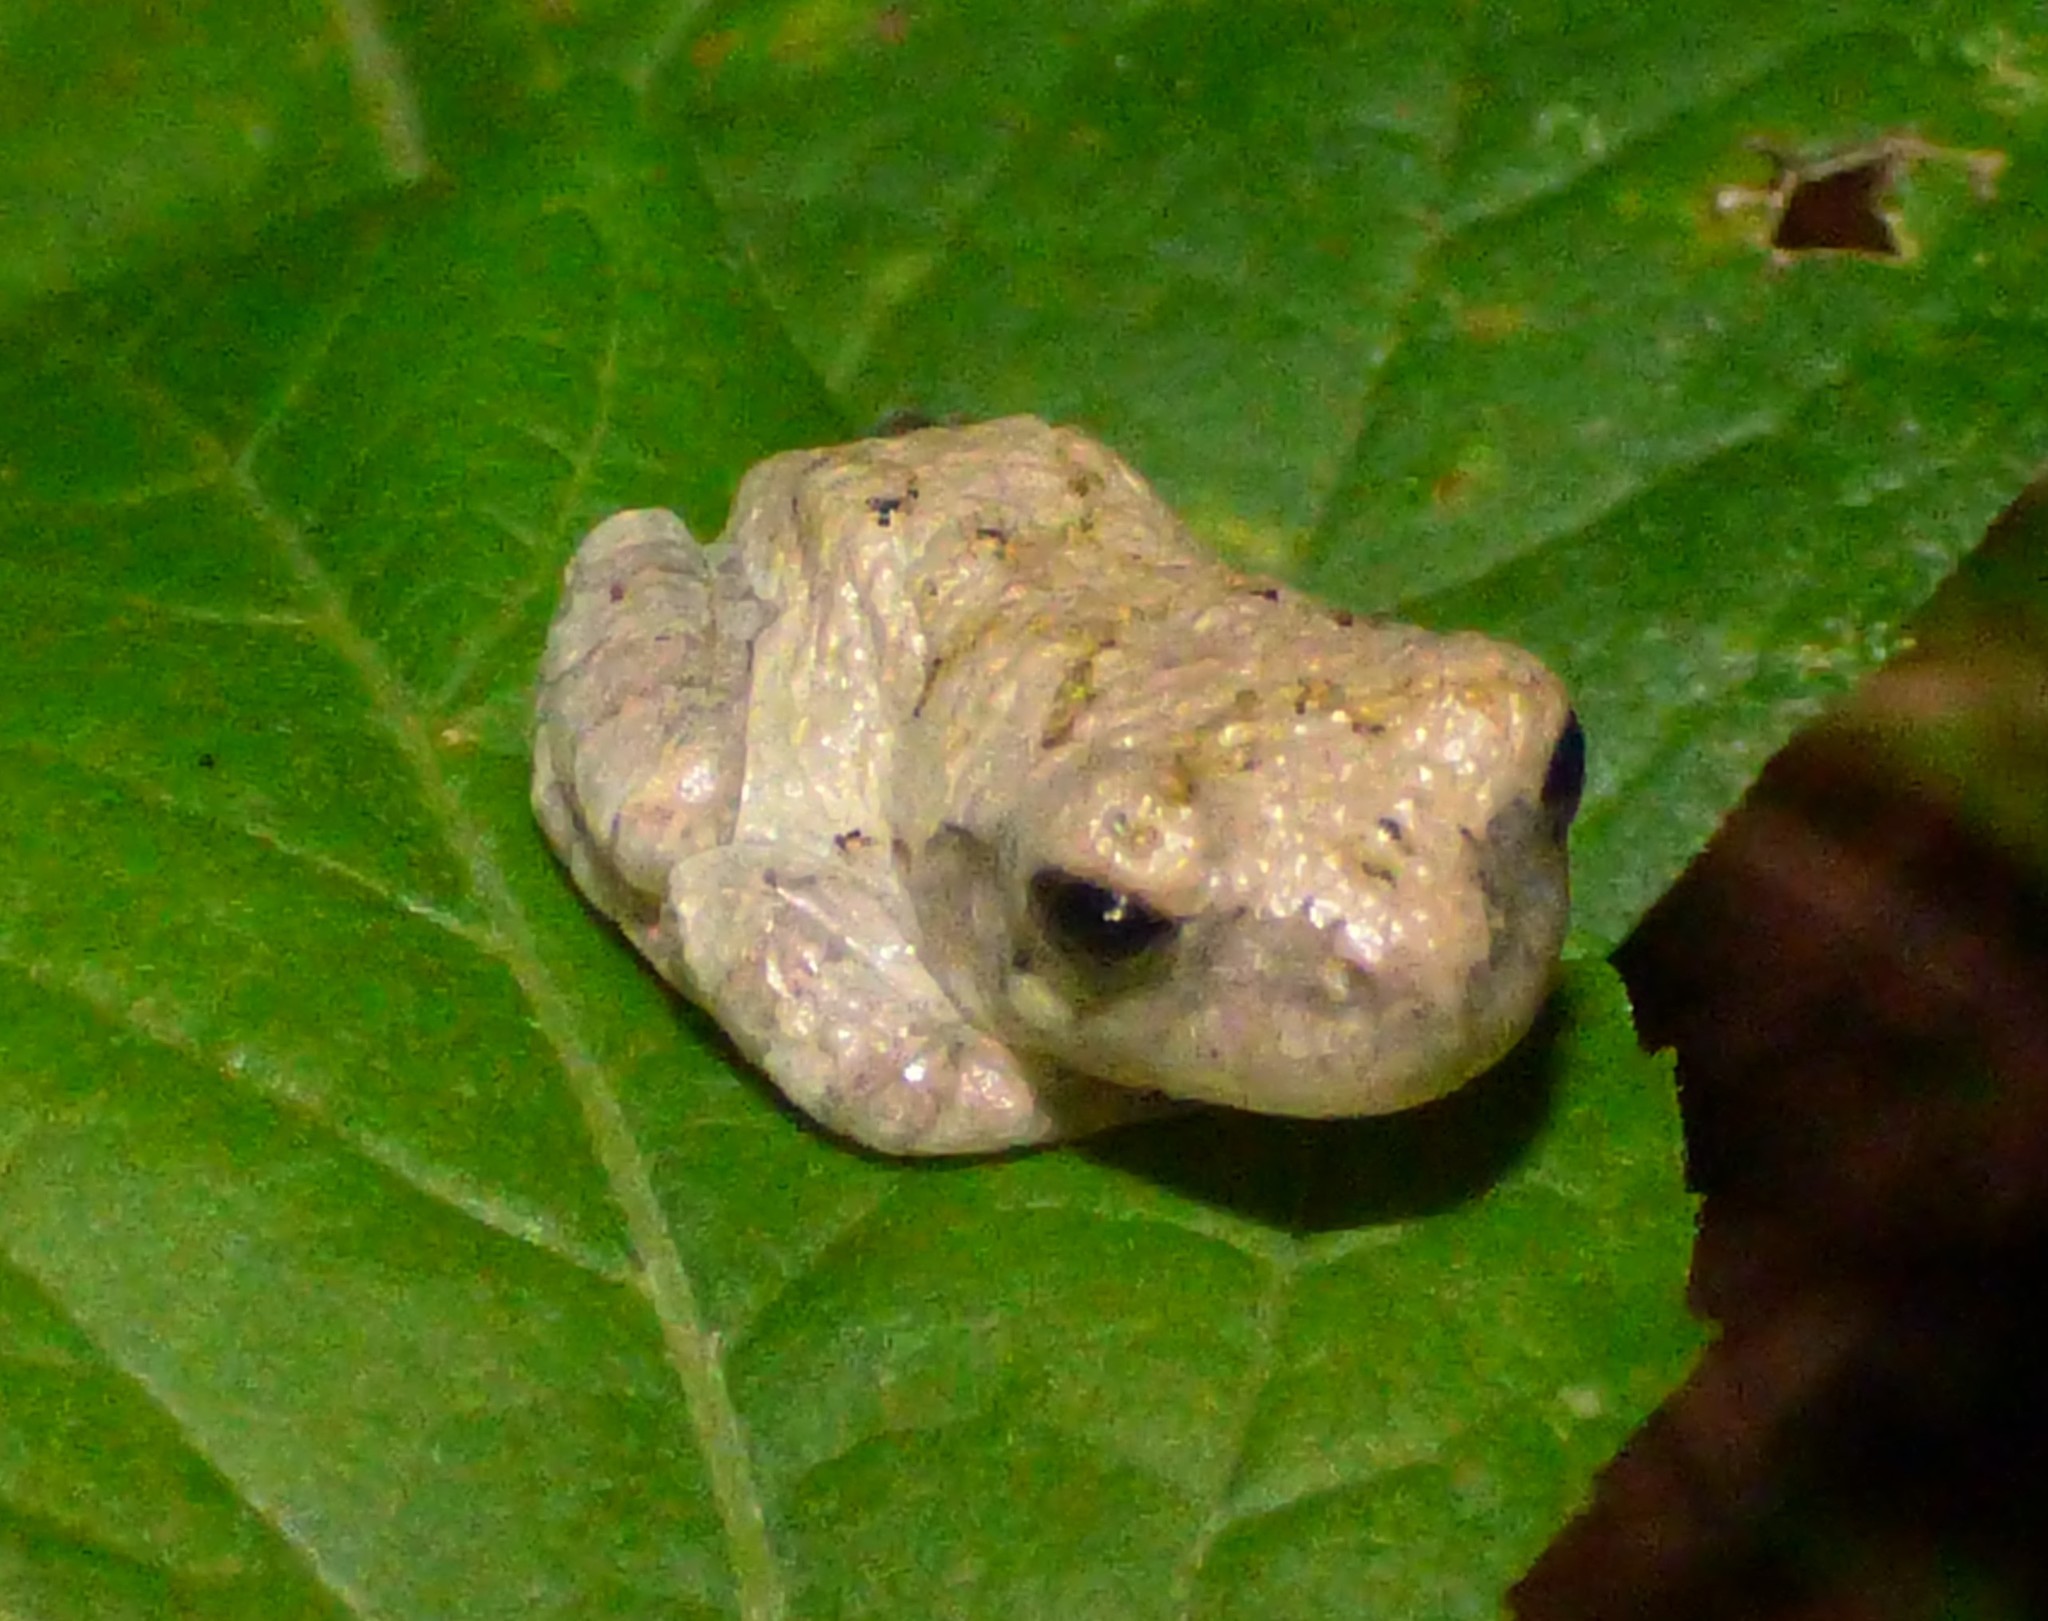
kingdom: Animalia
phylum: Chordata
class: Amphibia
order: Anura
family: Hylidae
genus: Dryophytes
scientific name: Dryophytes chrysoscelis
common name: Cope's gray treefrog
